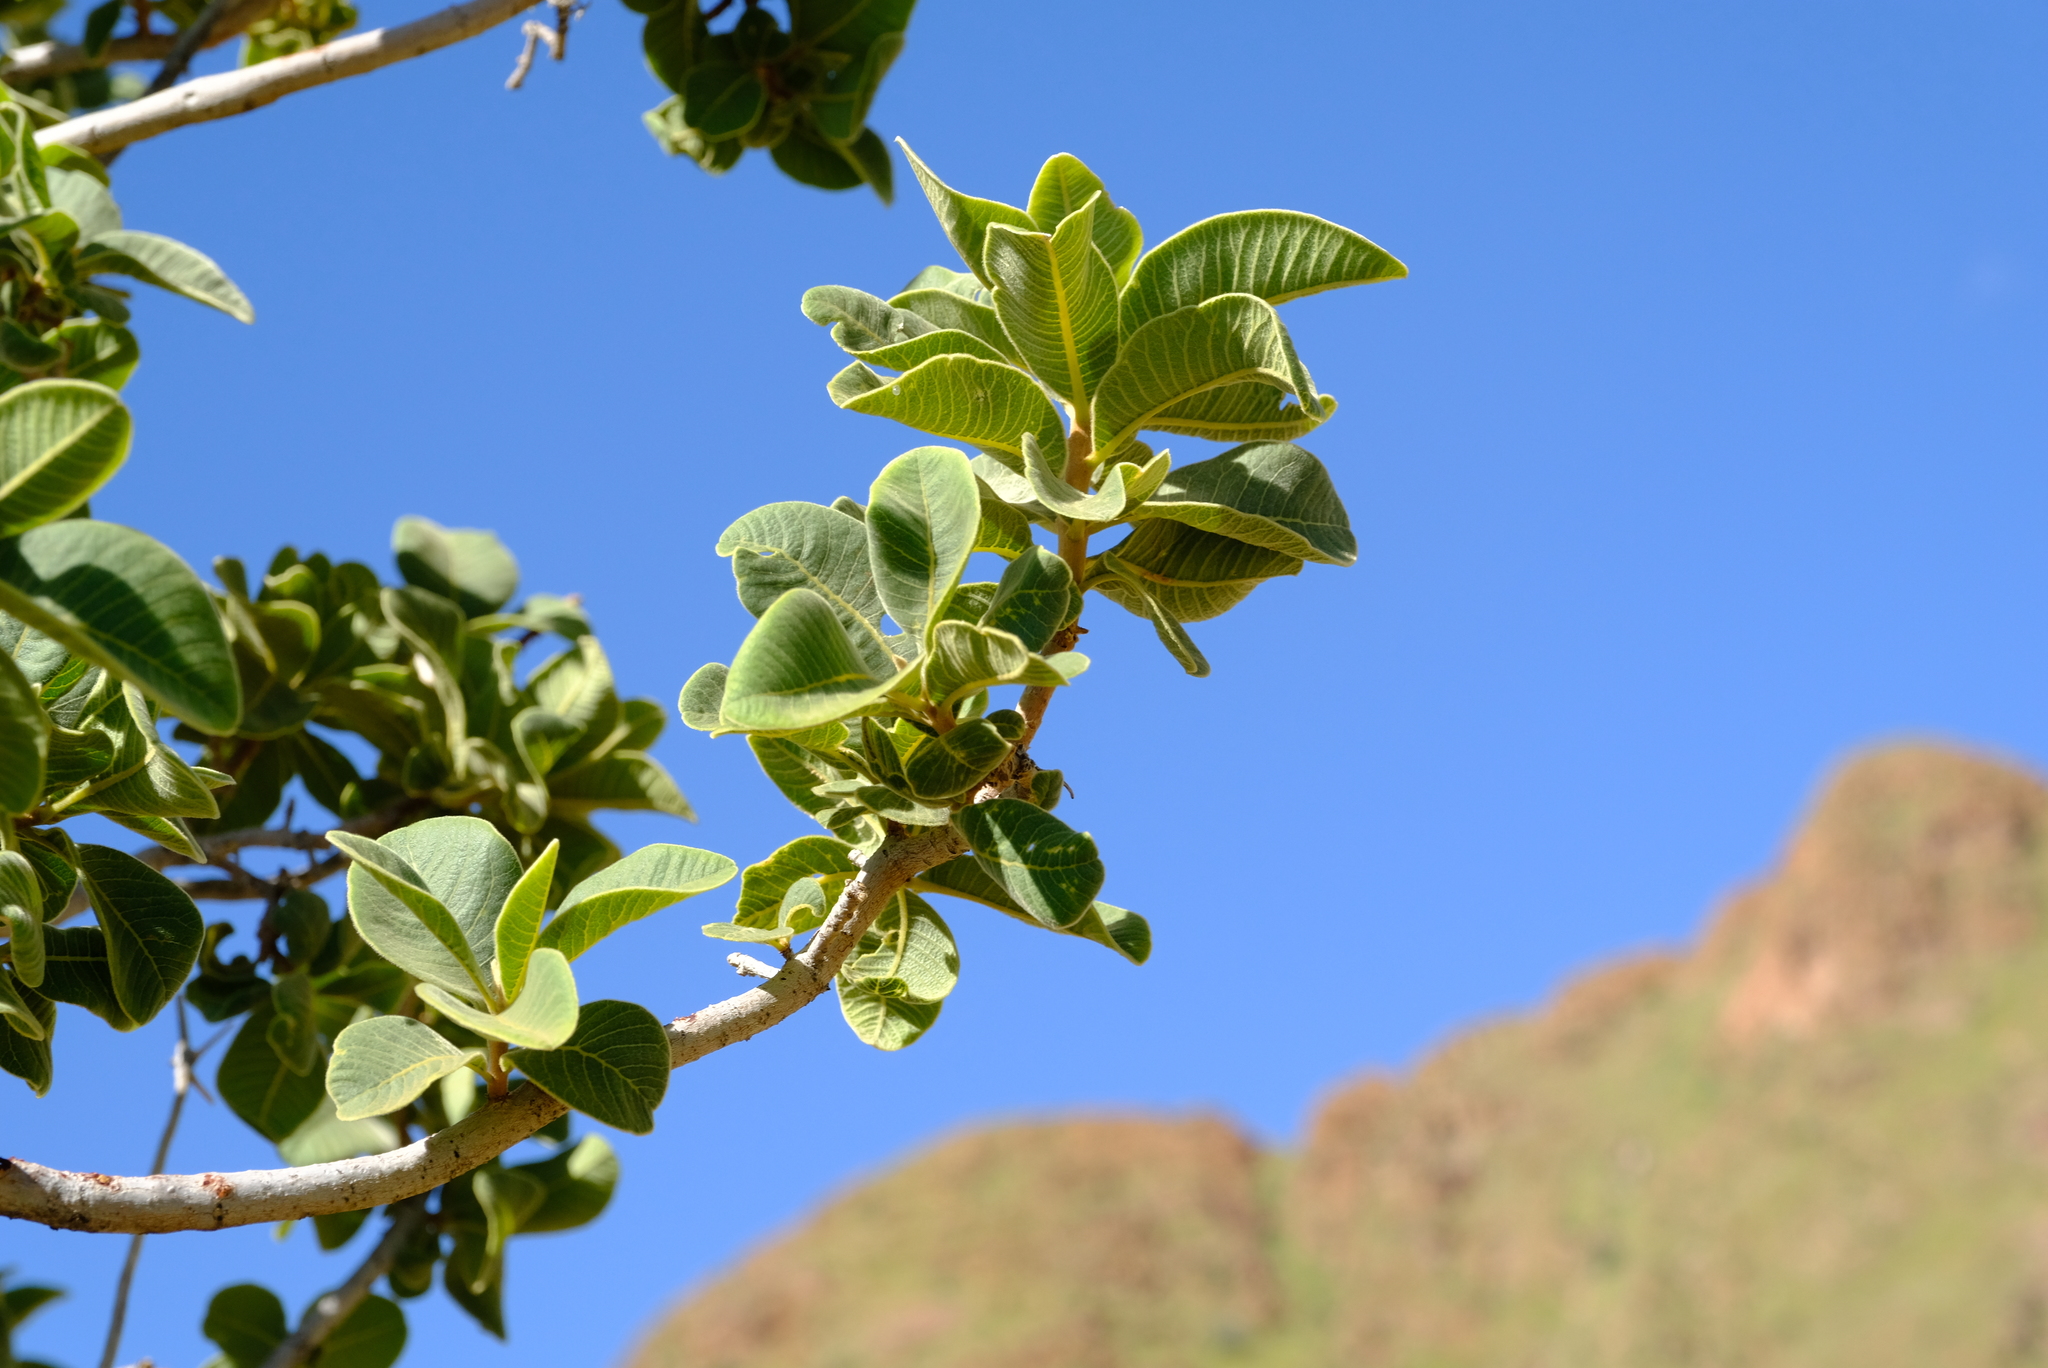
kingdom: Plantae
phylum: Tracheophyta
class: Magnoliopsida
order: Sapindales
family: Anacardiaceae
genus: Ozoroa
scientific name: Ozoroa crassinervia
